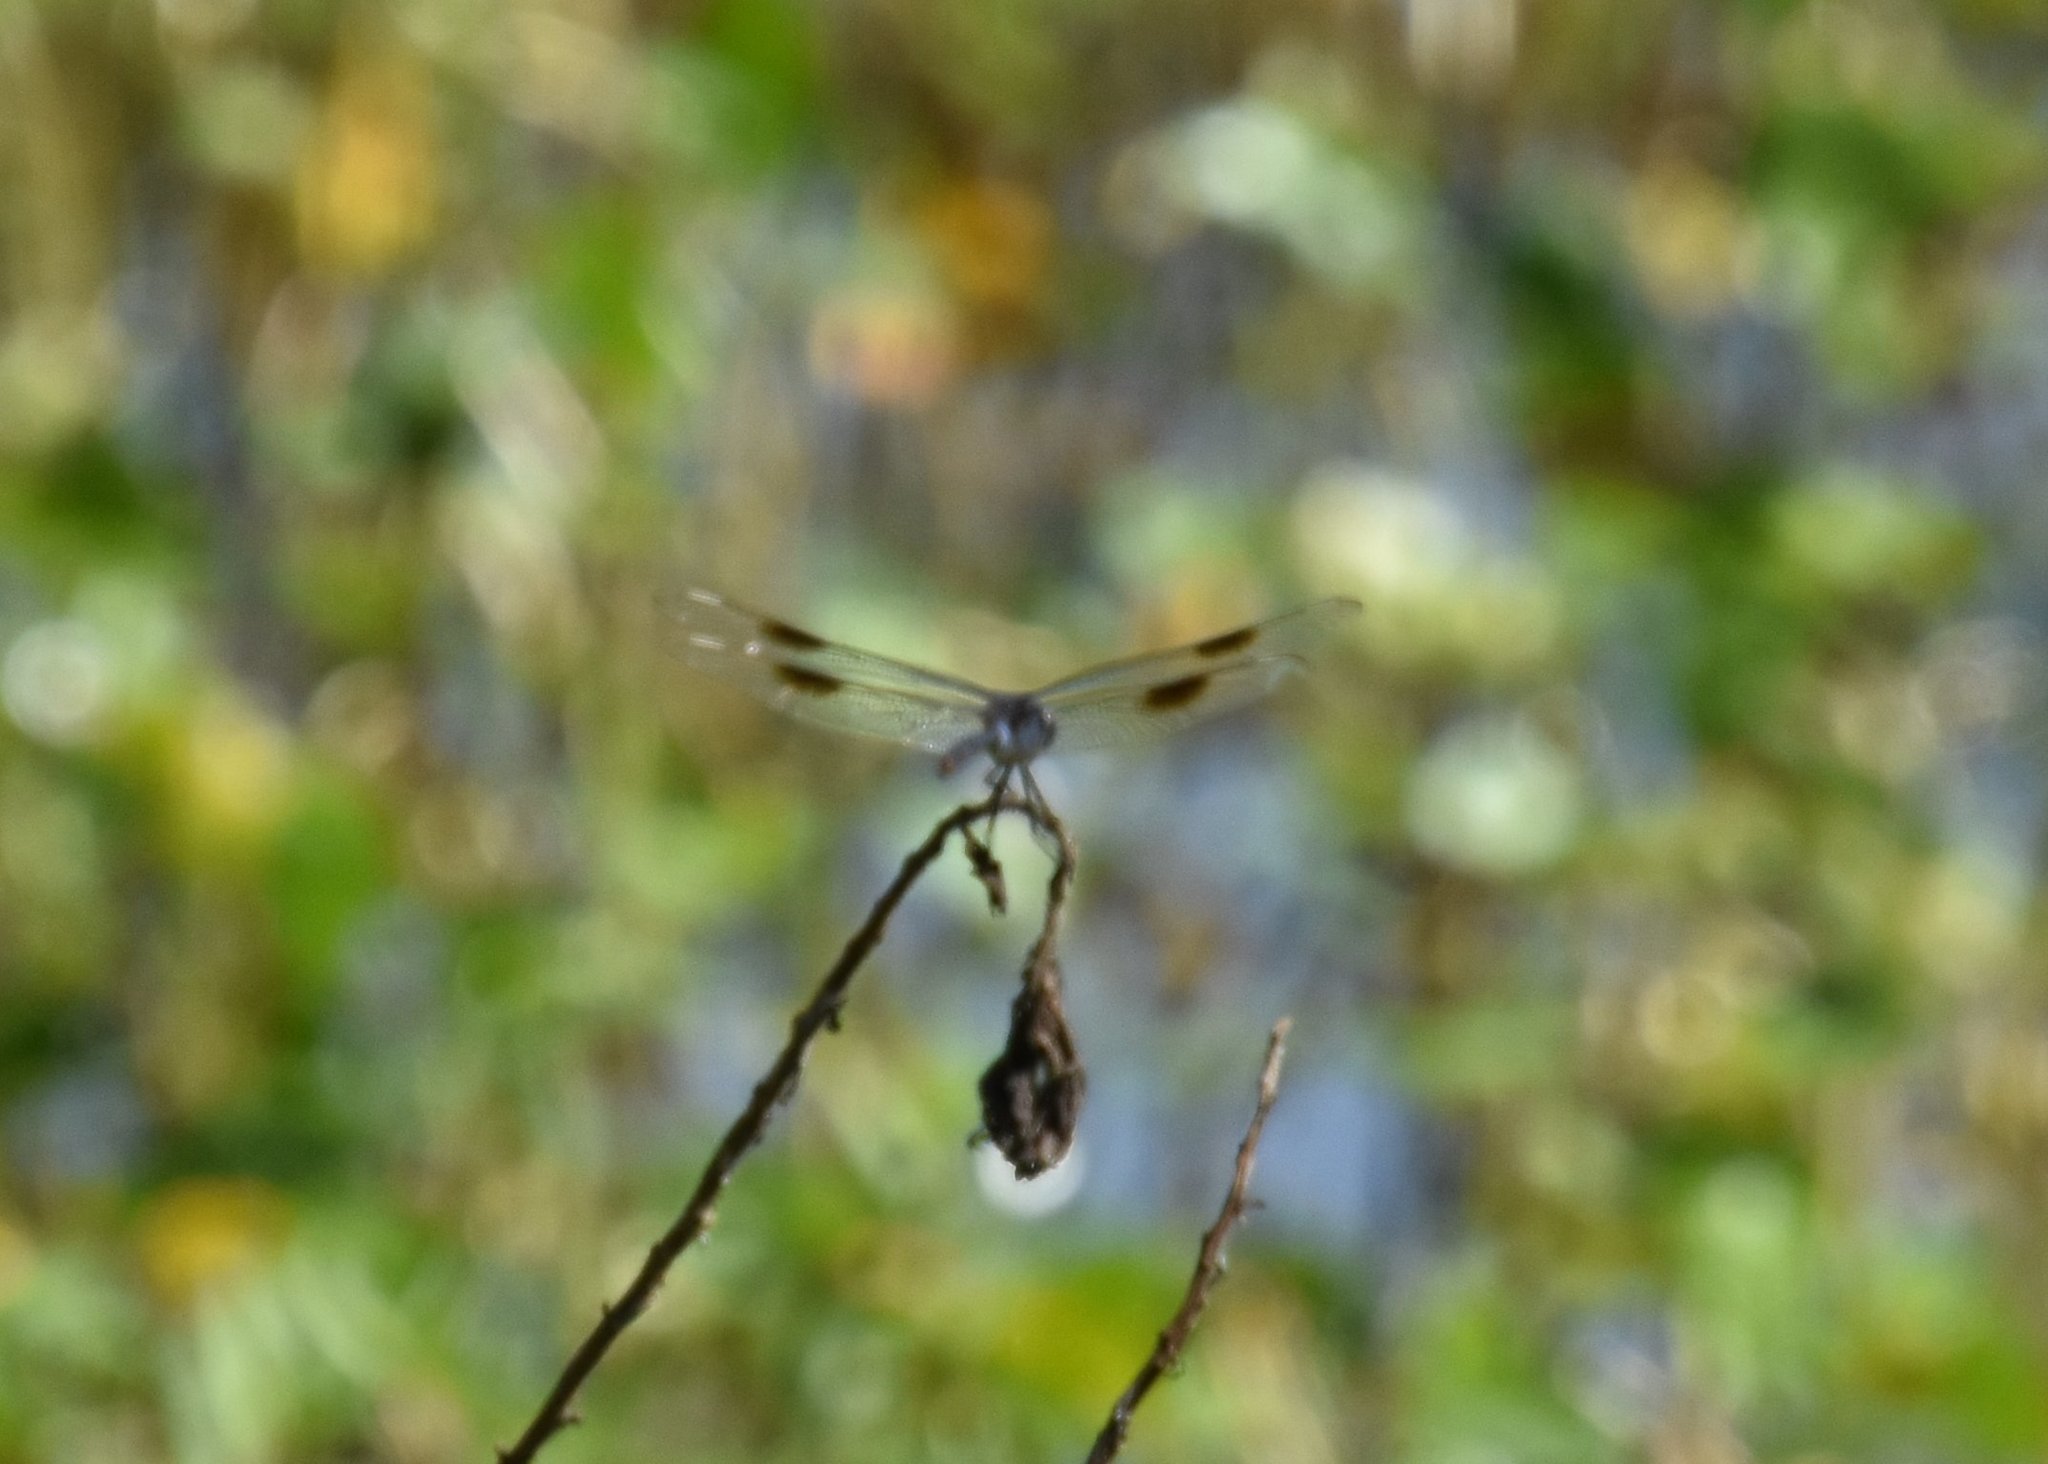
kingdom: Animalia
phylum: Arthropoda
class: Insecta
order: Odonata
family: Libellulidae
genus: Brachymesia
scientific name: Brachymesia gravida
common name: Four-spotted pennant
